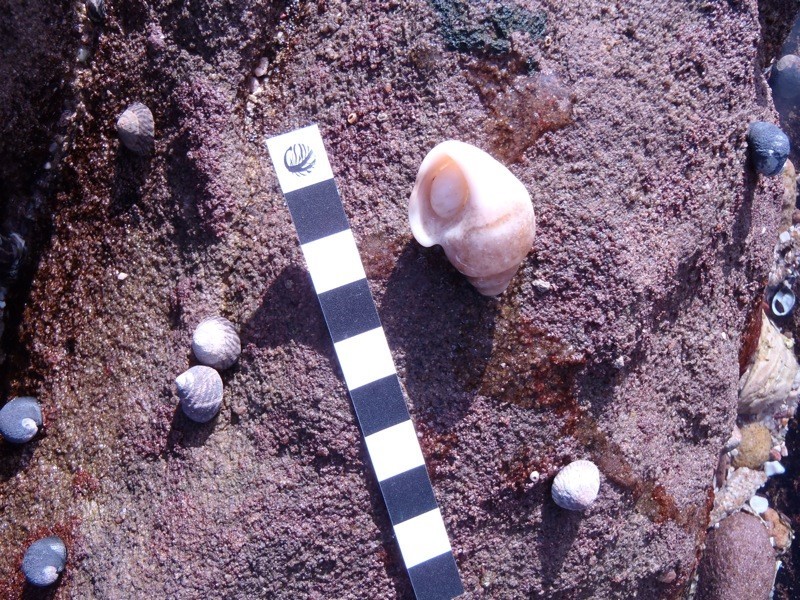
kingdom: Animalia
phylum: Mollusca
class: Gastropoda
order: Littorinimorpha
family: Struthiolariidae
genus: Tylospira
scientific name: Tylospira scutulata
